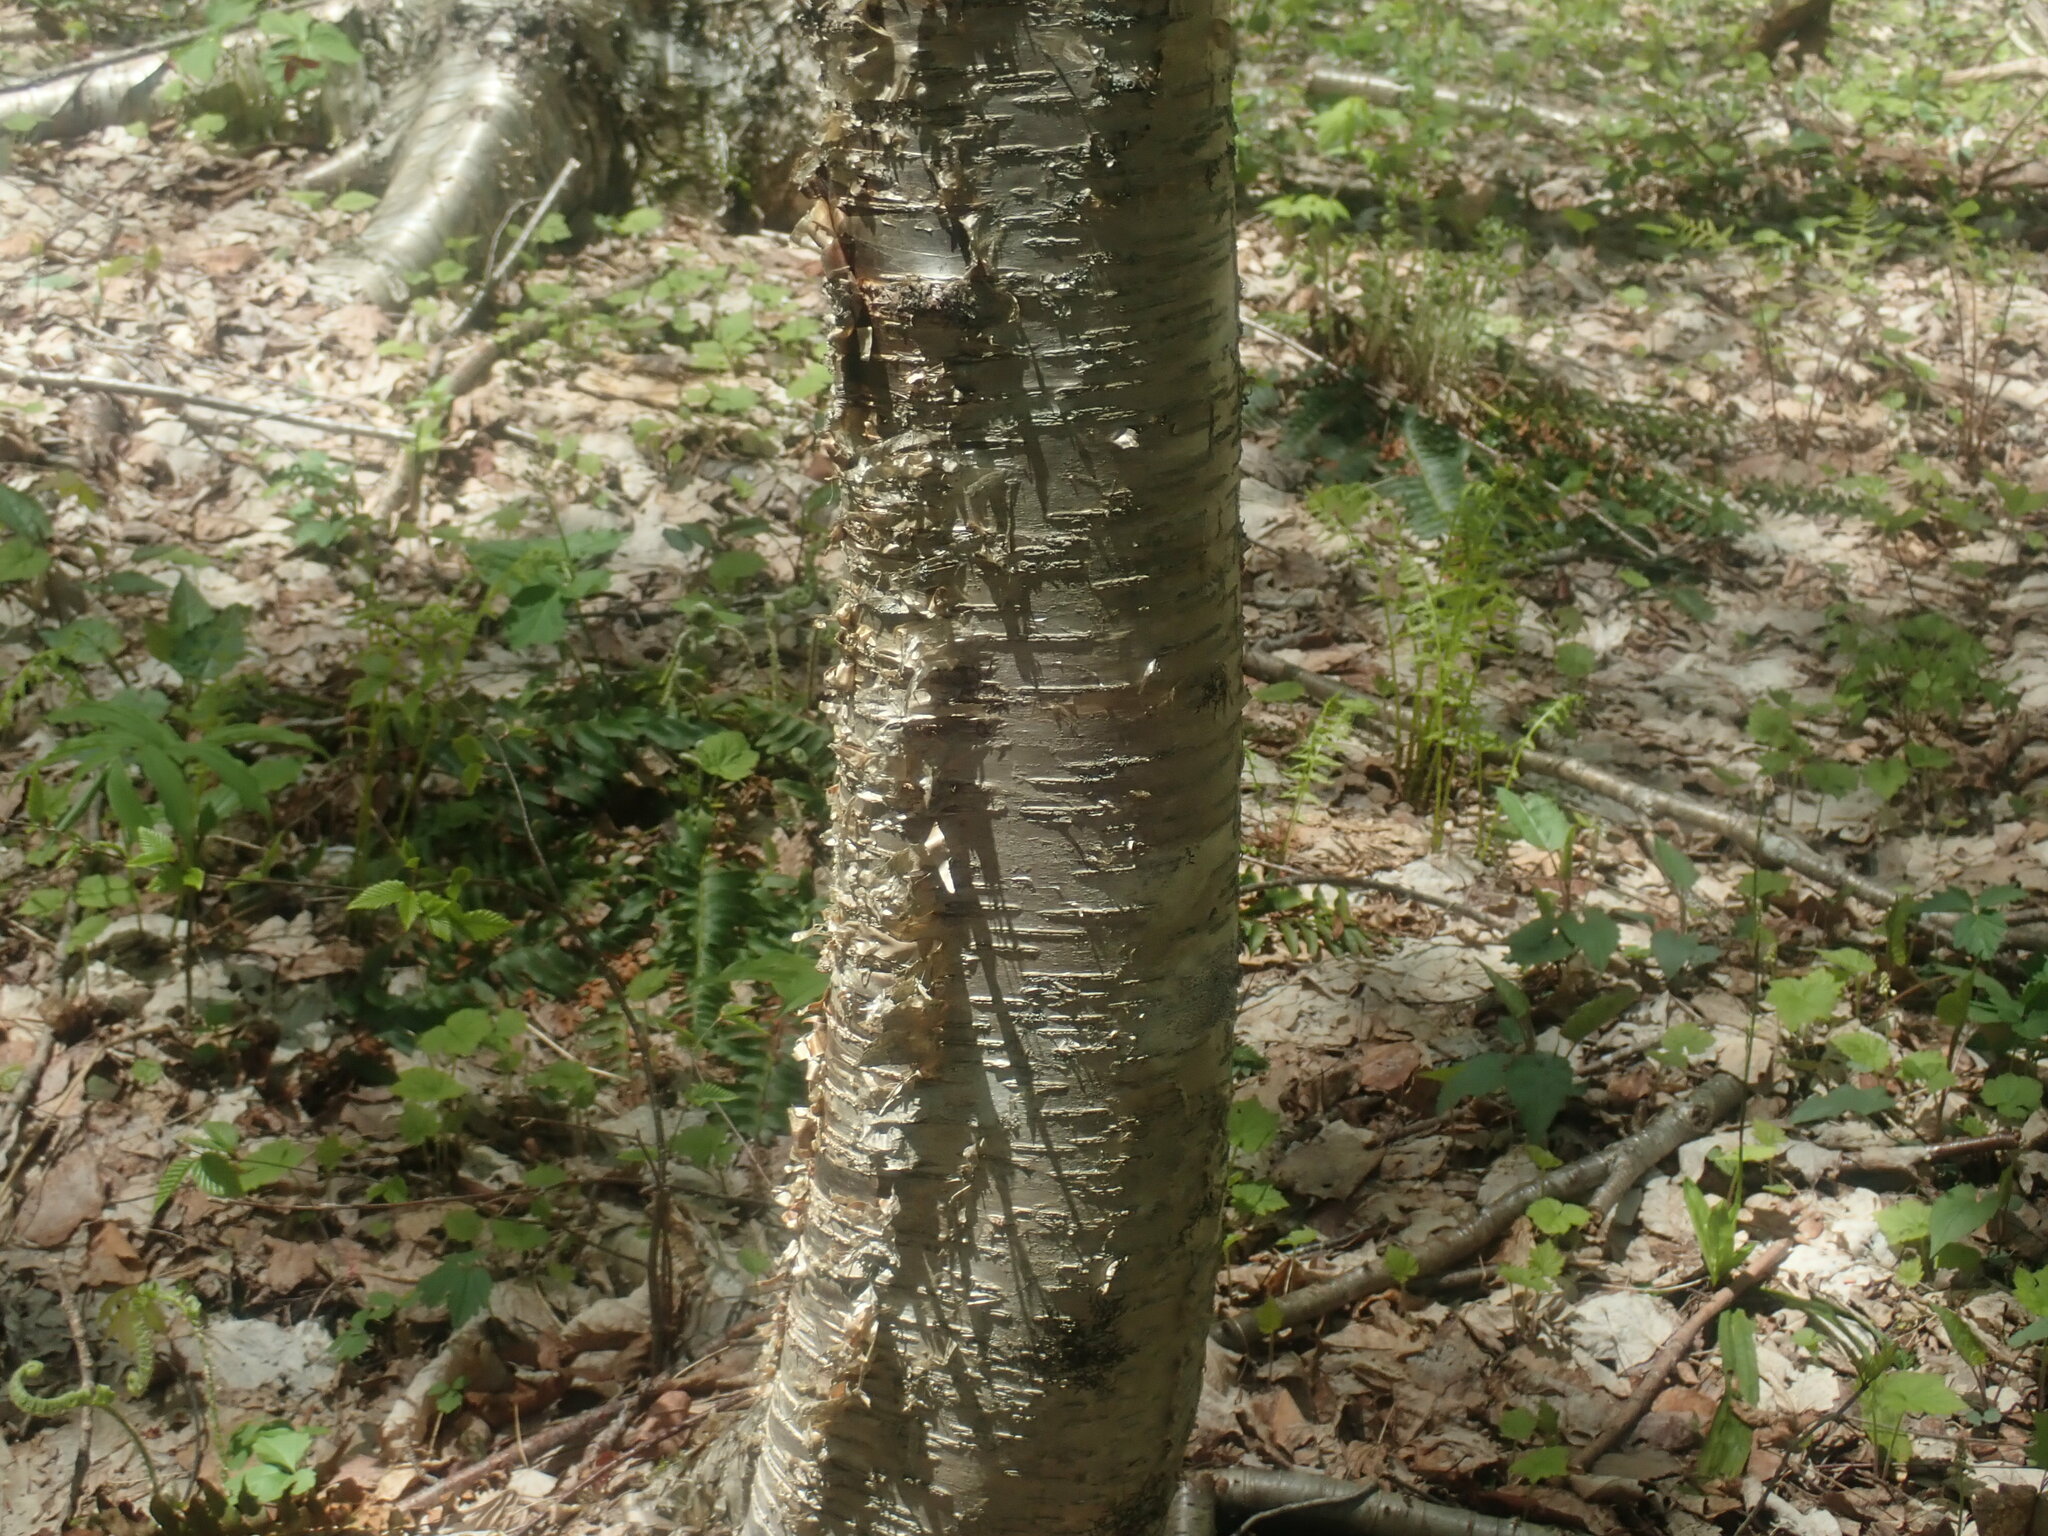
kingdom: Plantae
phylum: Tracheophyta
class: Magnoliopsida
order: Fagales
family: Betulaceae
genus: Betula
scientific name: Betula alleghaniensis
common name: Yellow birch
